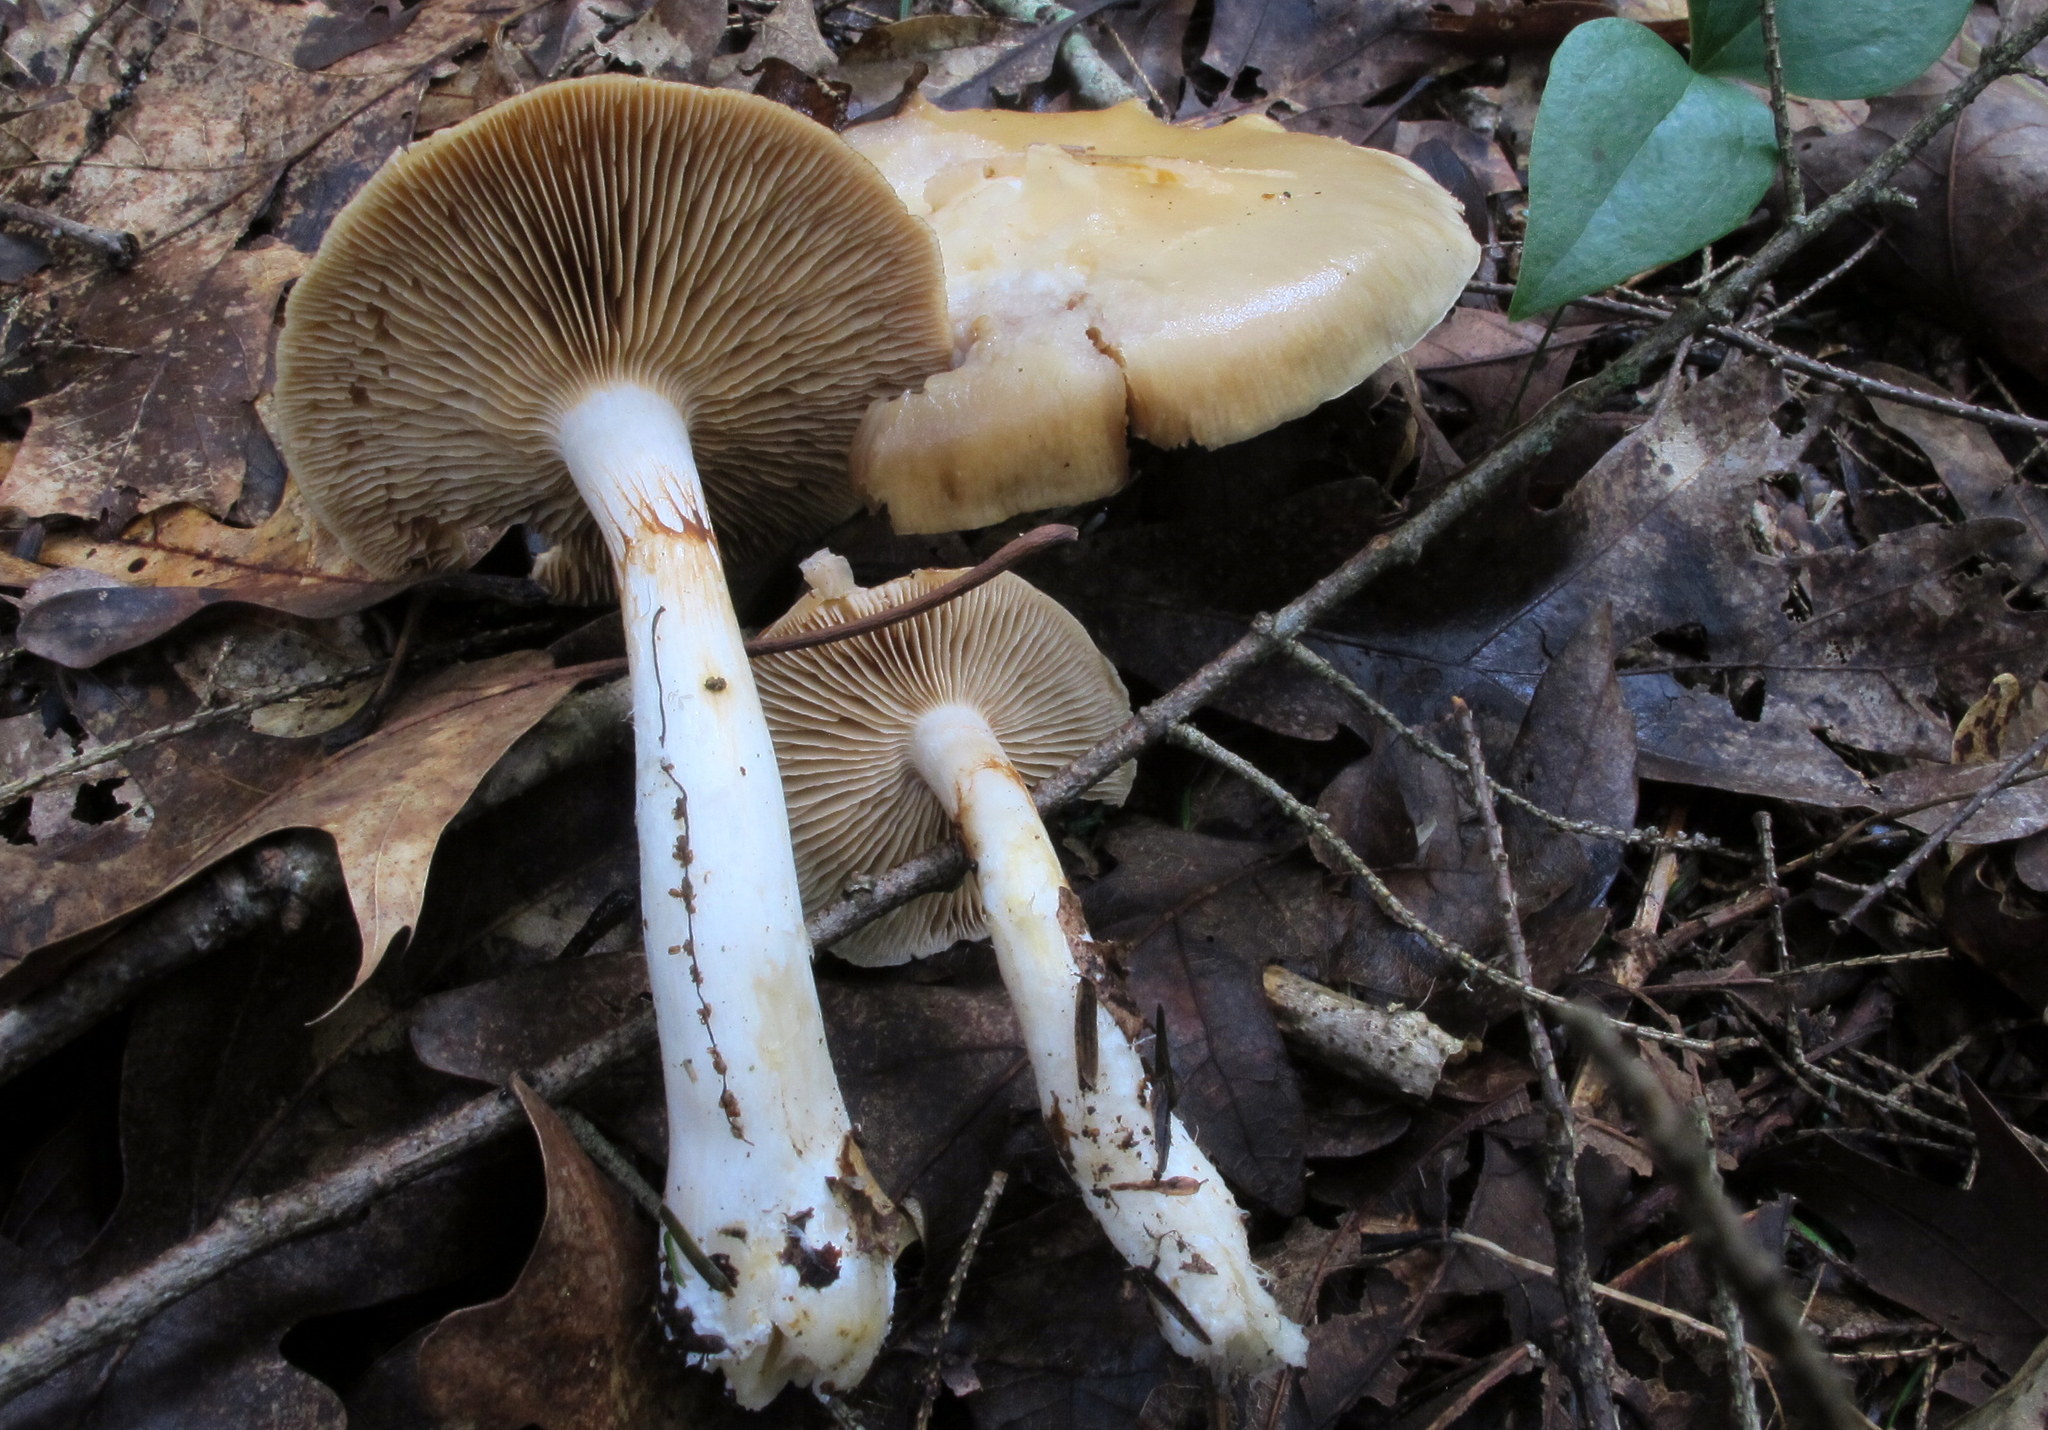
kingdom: Fungi
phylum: Basidiomycota
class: Agaricomycetes
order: Agaricales
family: Cortinariaceae
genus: Cortinarius
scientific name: Cortinarius delibutus
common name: Yellow webcap
